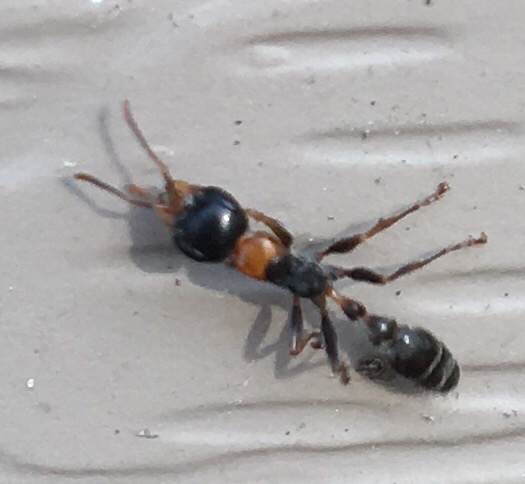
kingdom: Animalia
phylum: Arthropoda
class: Insecta
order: Hymenoptera
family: Formicidae
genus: Pseudomyrmex
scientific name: Pseudomyrmex gracilis
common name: Graceful twig ant
